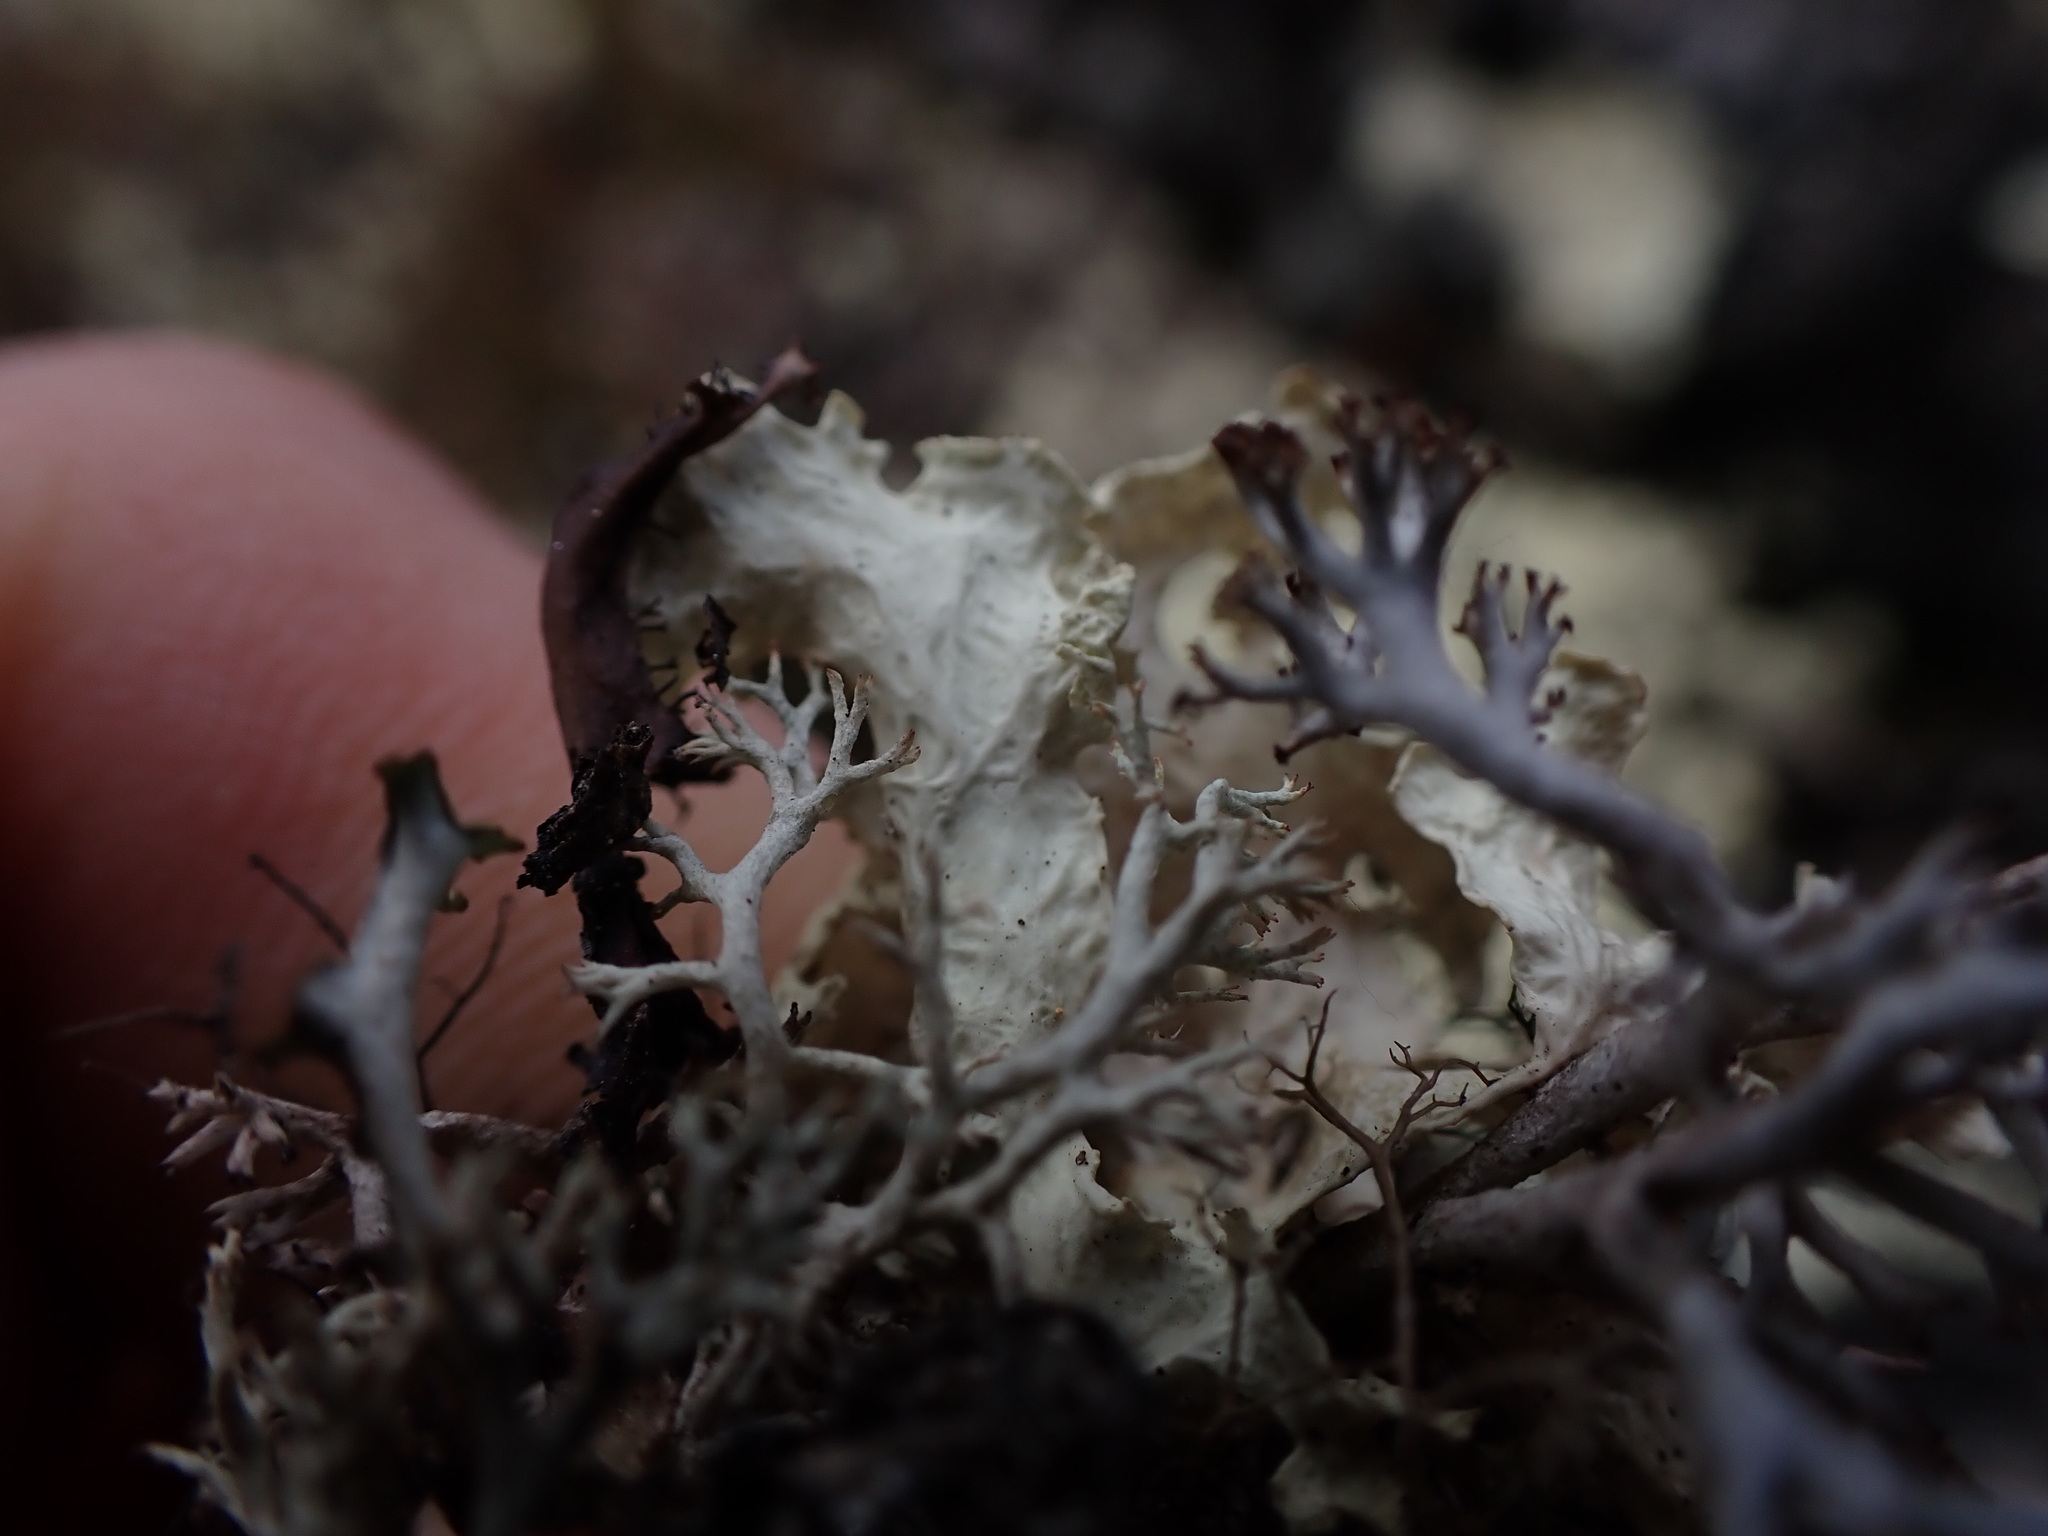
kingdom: Fungi
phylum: Ascomycota
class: Lecanoromycetes
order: Lecanorales
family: Parmeliaceae
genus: Nephromopsis
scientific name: Nephromopsis nivalis
